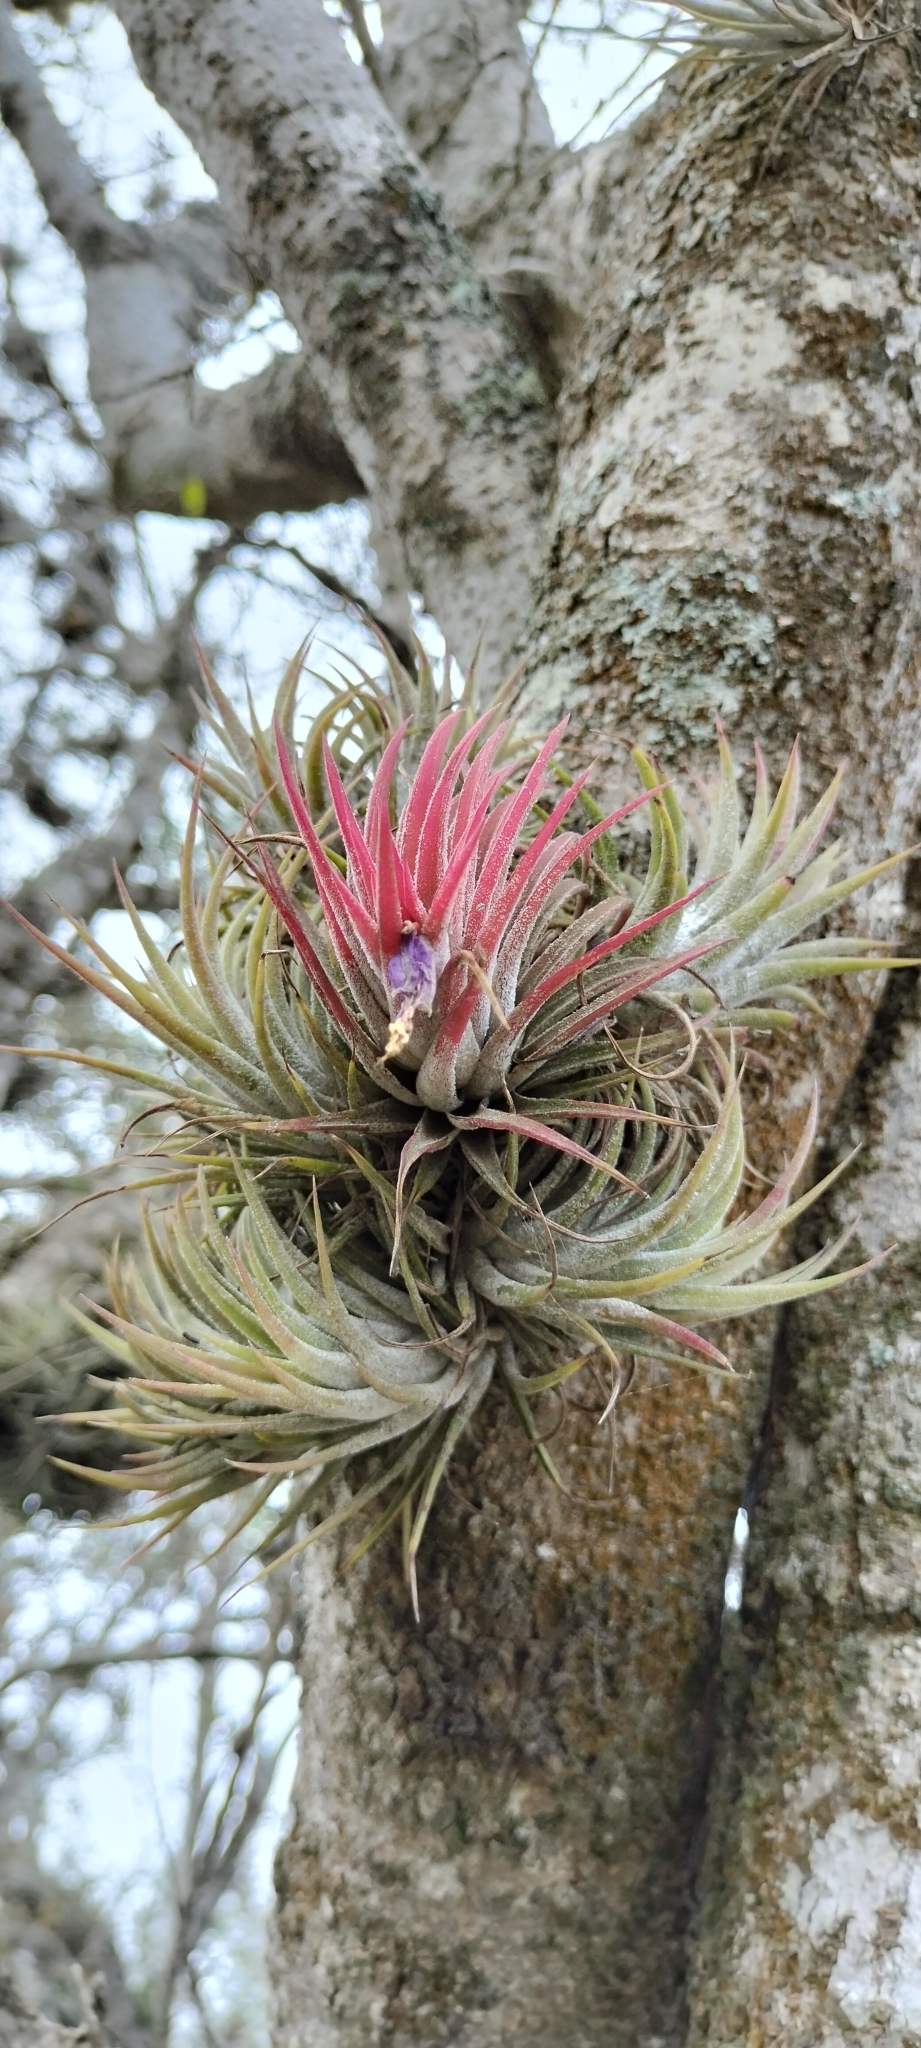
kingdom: Plantae
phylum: Tracheophyta
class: Liliopsida
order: Poales
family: Bromeliaceae
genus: Tillandsia
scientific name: Tillandsia ionantha
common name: Sky plant
